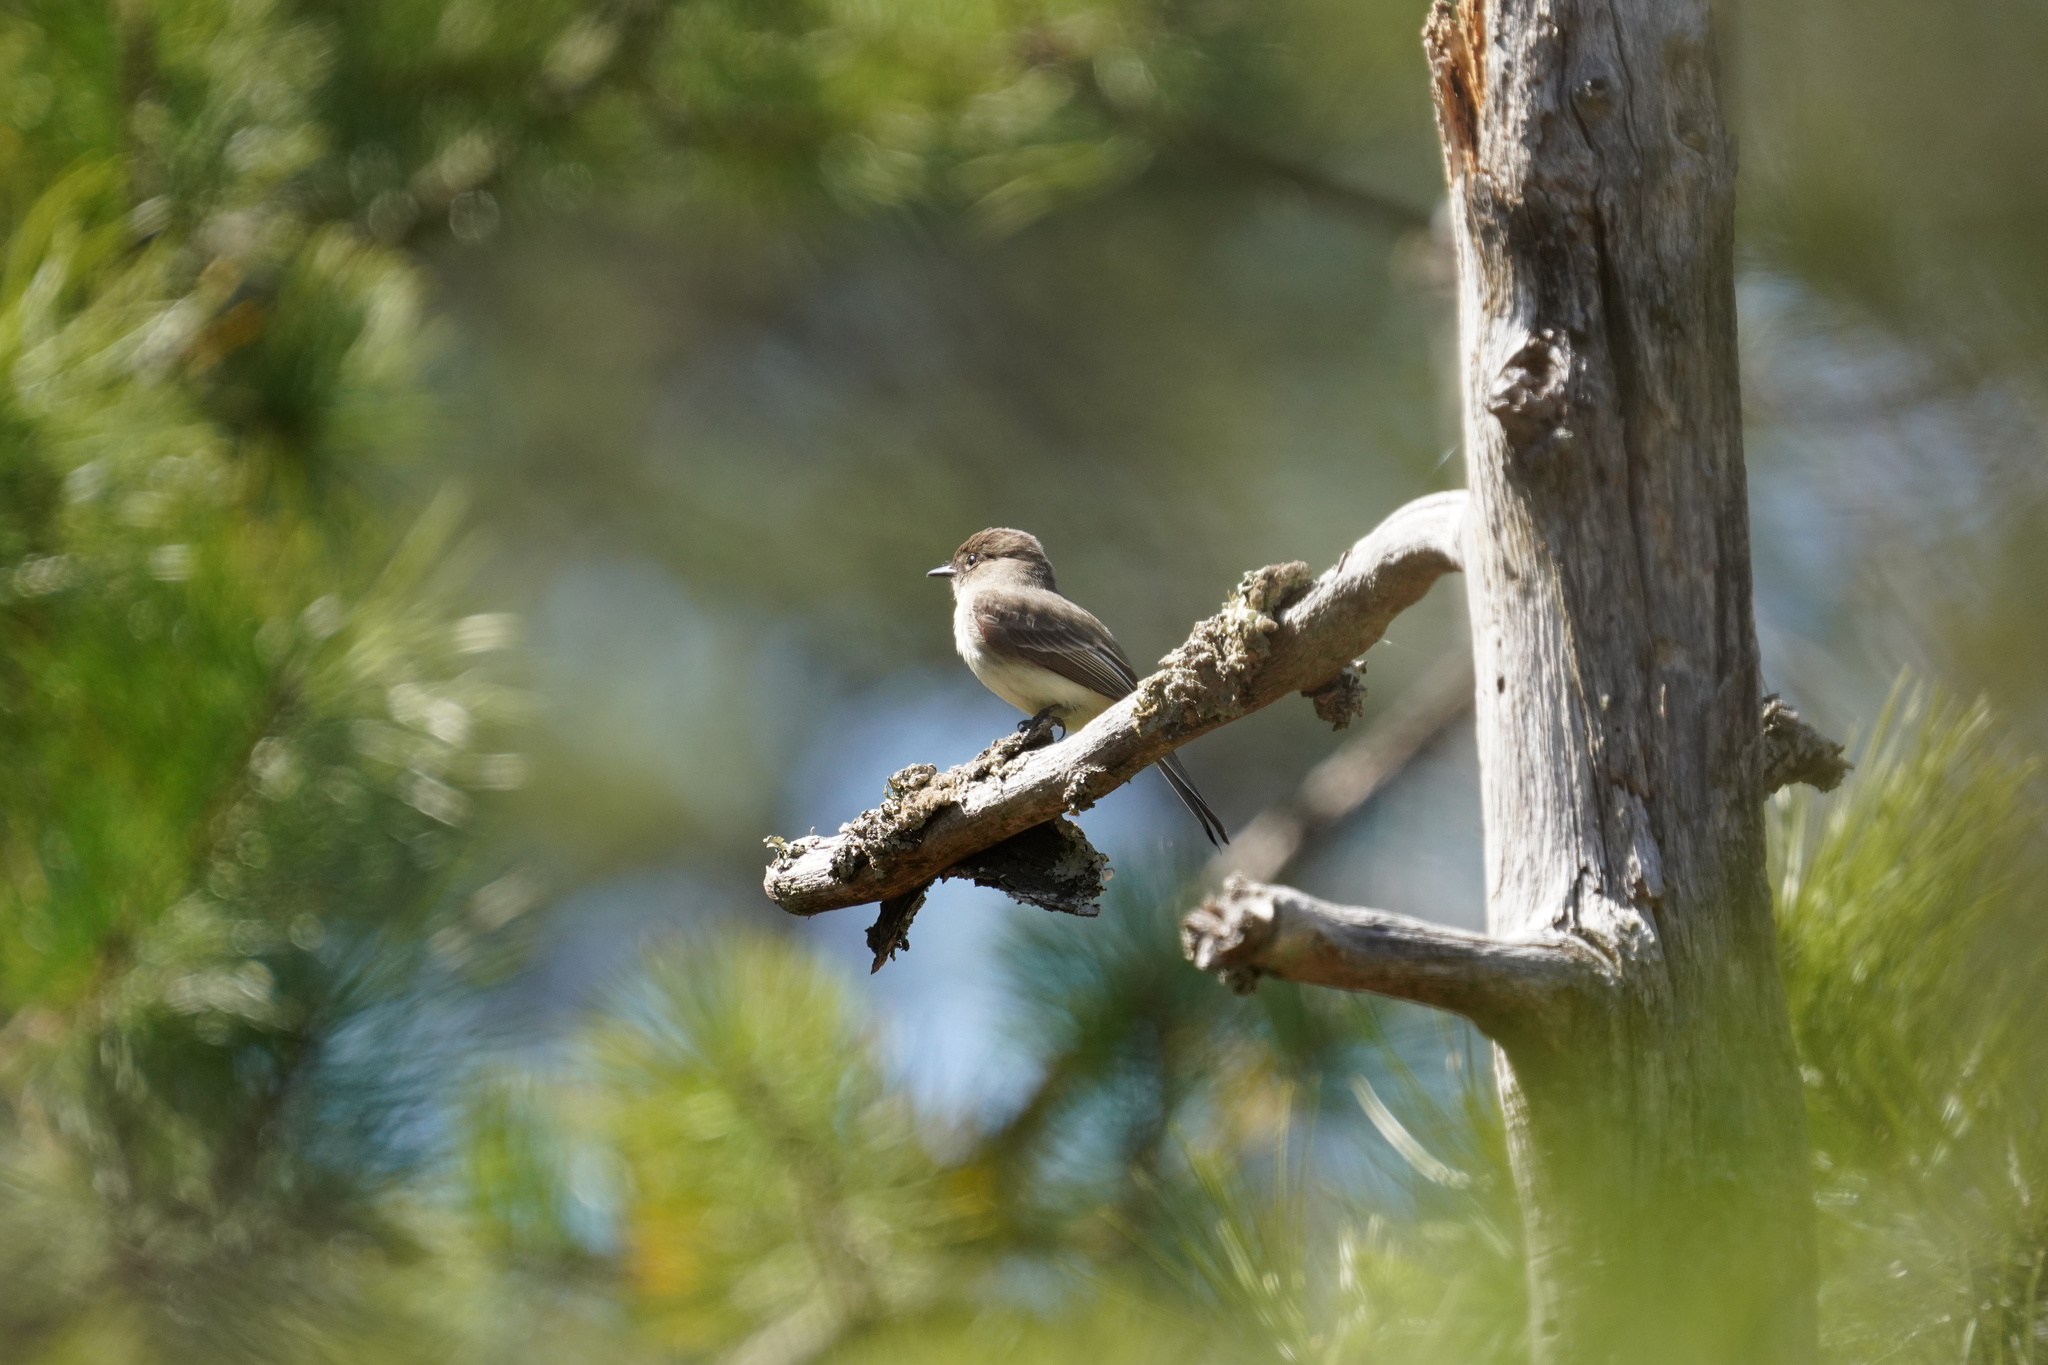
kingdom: Animalia
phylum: Chordata
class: Aves
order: Passeriformes
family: Tyrannidae
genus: Sayornis
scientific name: Sayornis phoebe
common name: Eastern phoebe
